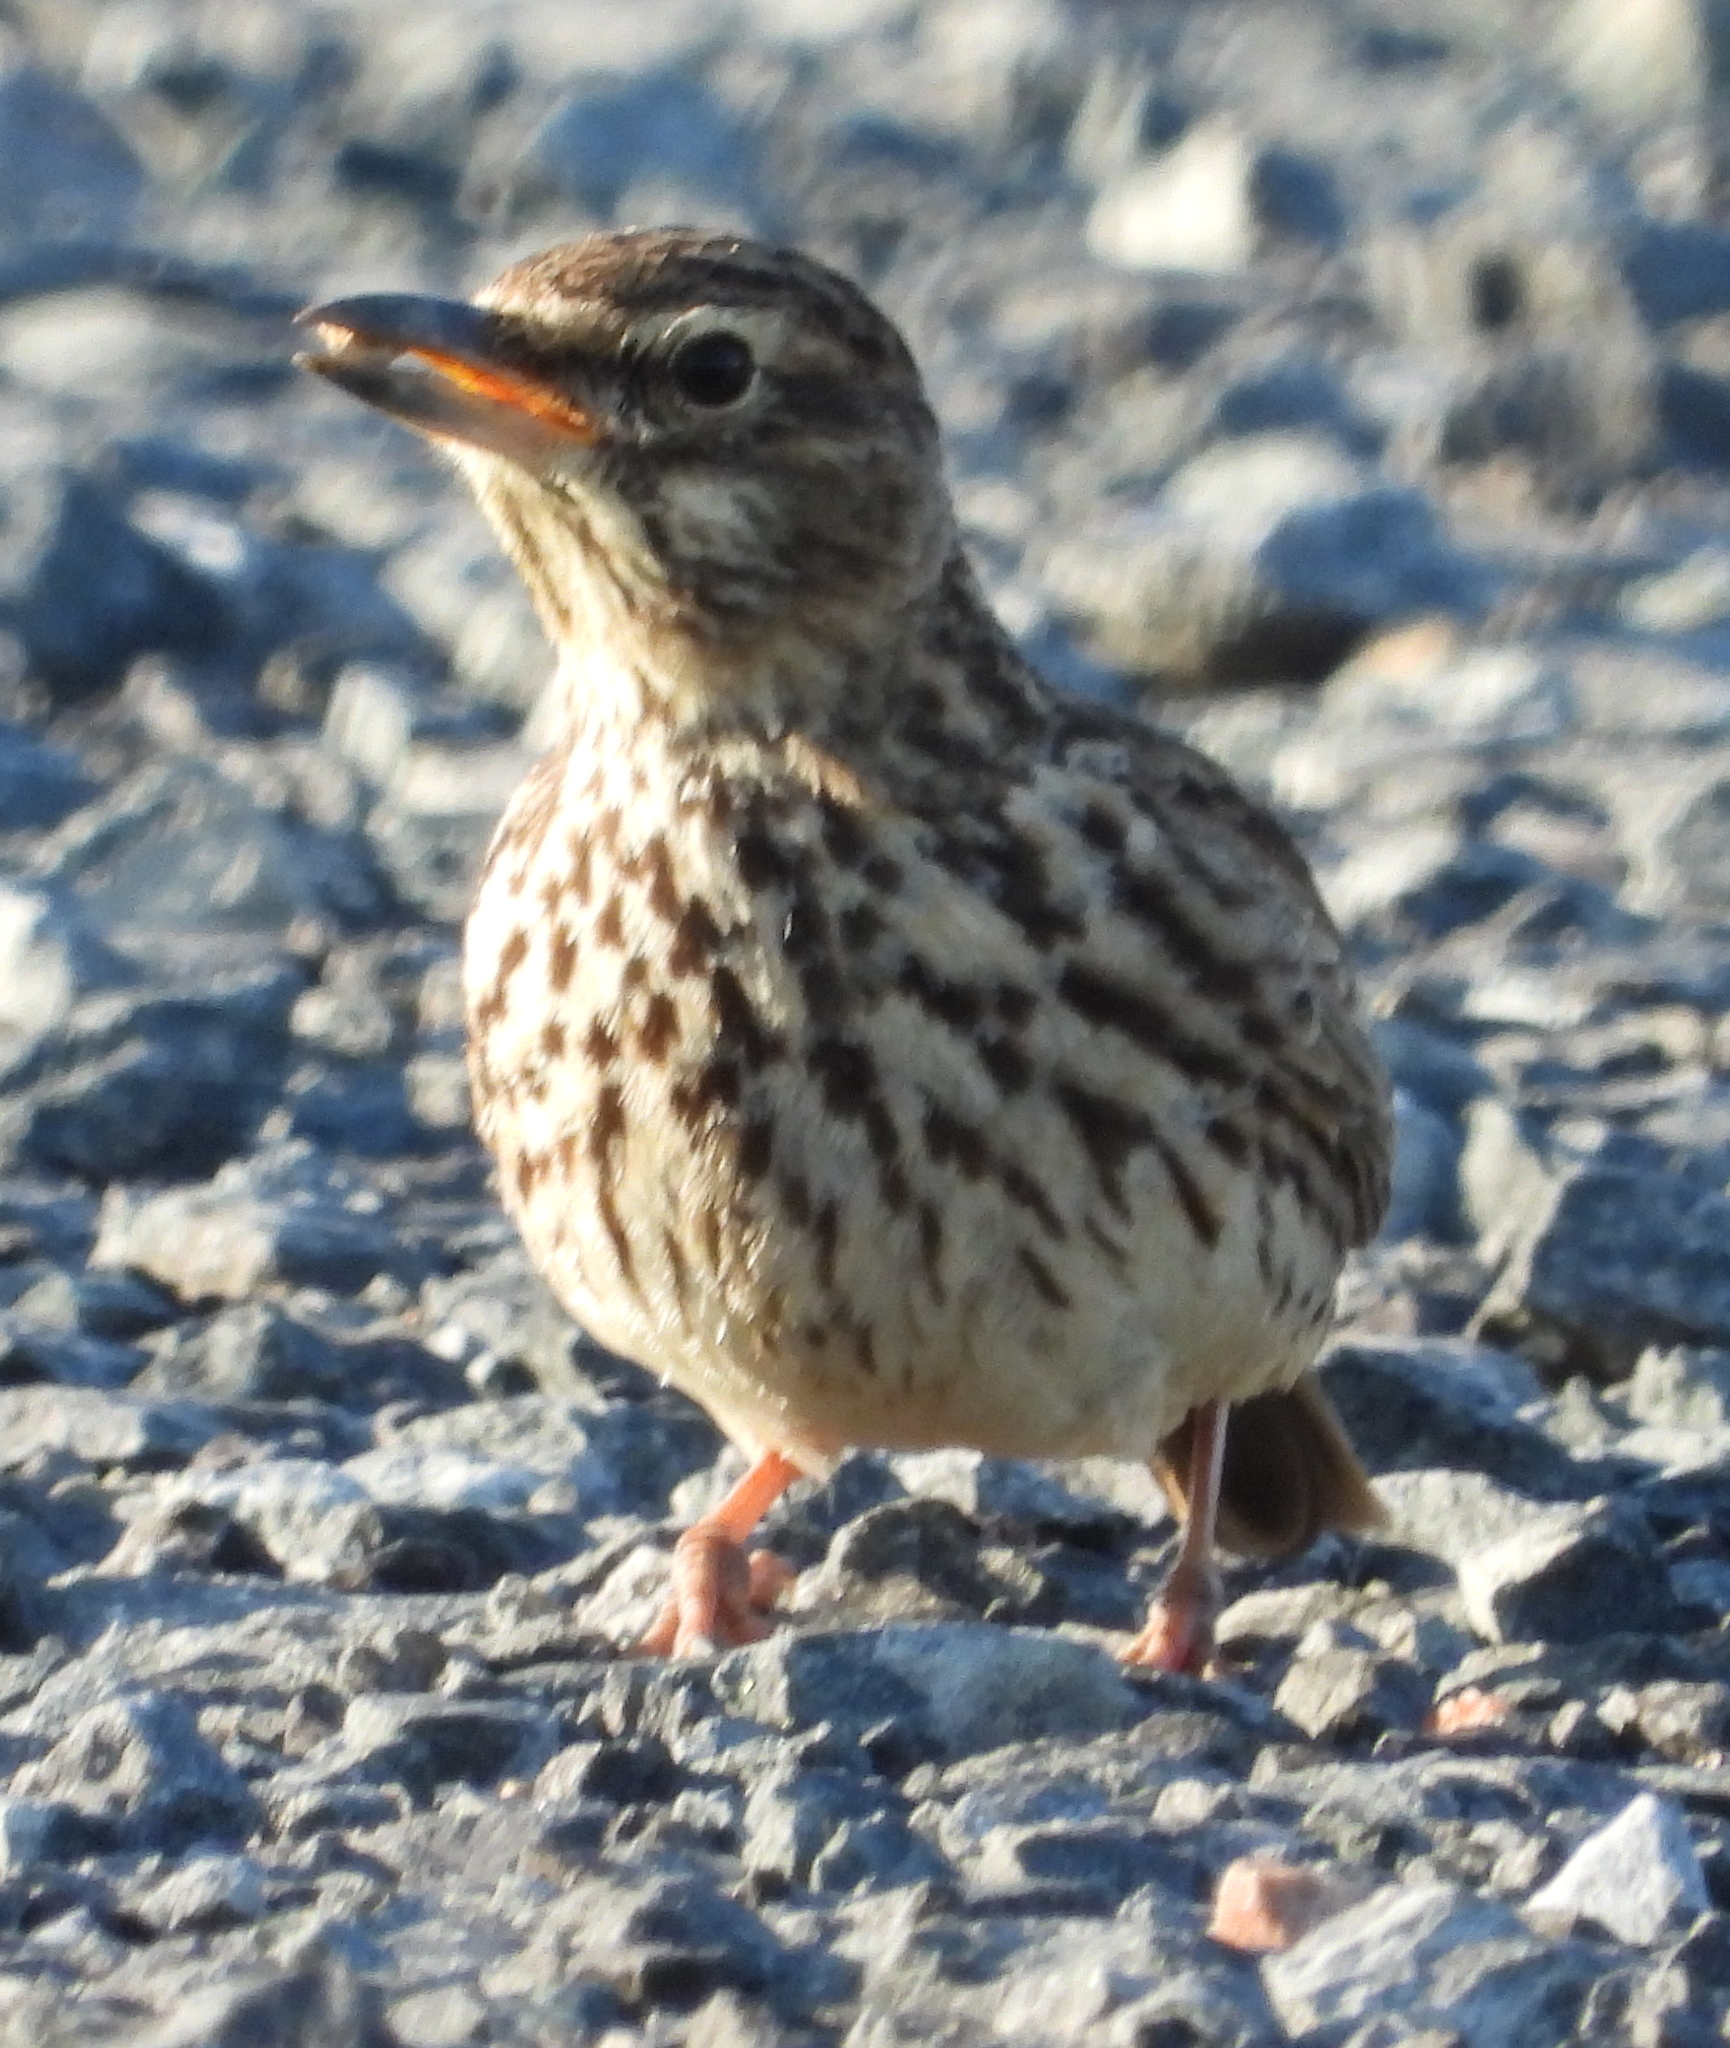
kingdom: Animalia
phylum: Chordata
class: Aves
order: Passeriformes
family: Alaudidae
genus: Galerida
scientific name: Galerida magnirostris
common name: Large-billed lark
